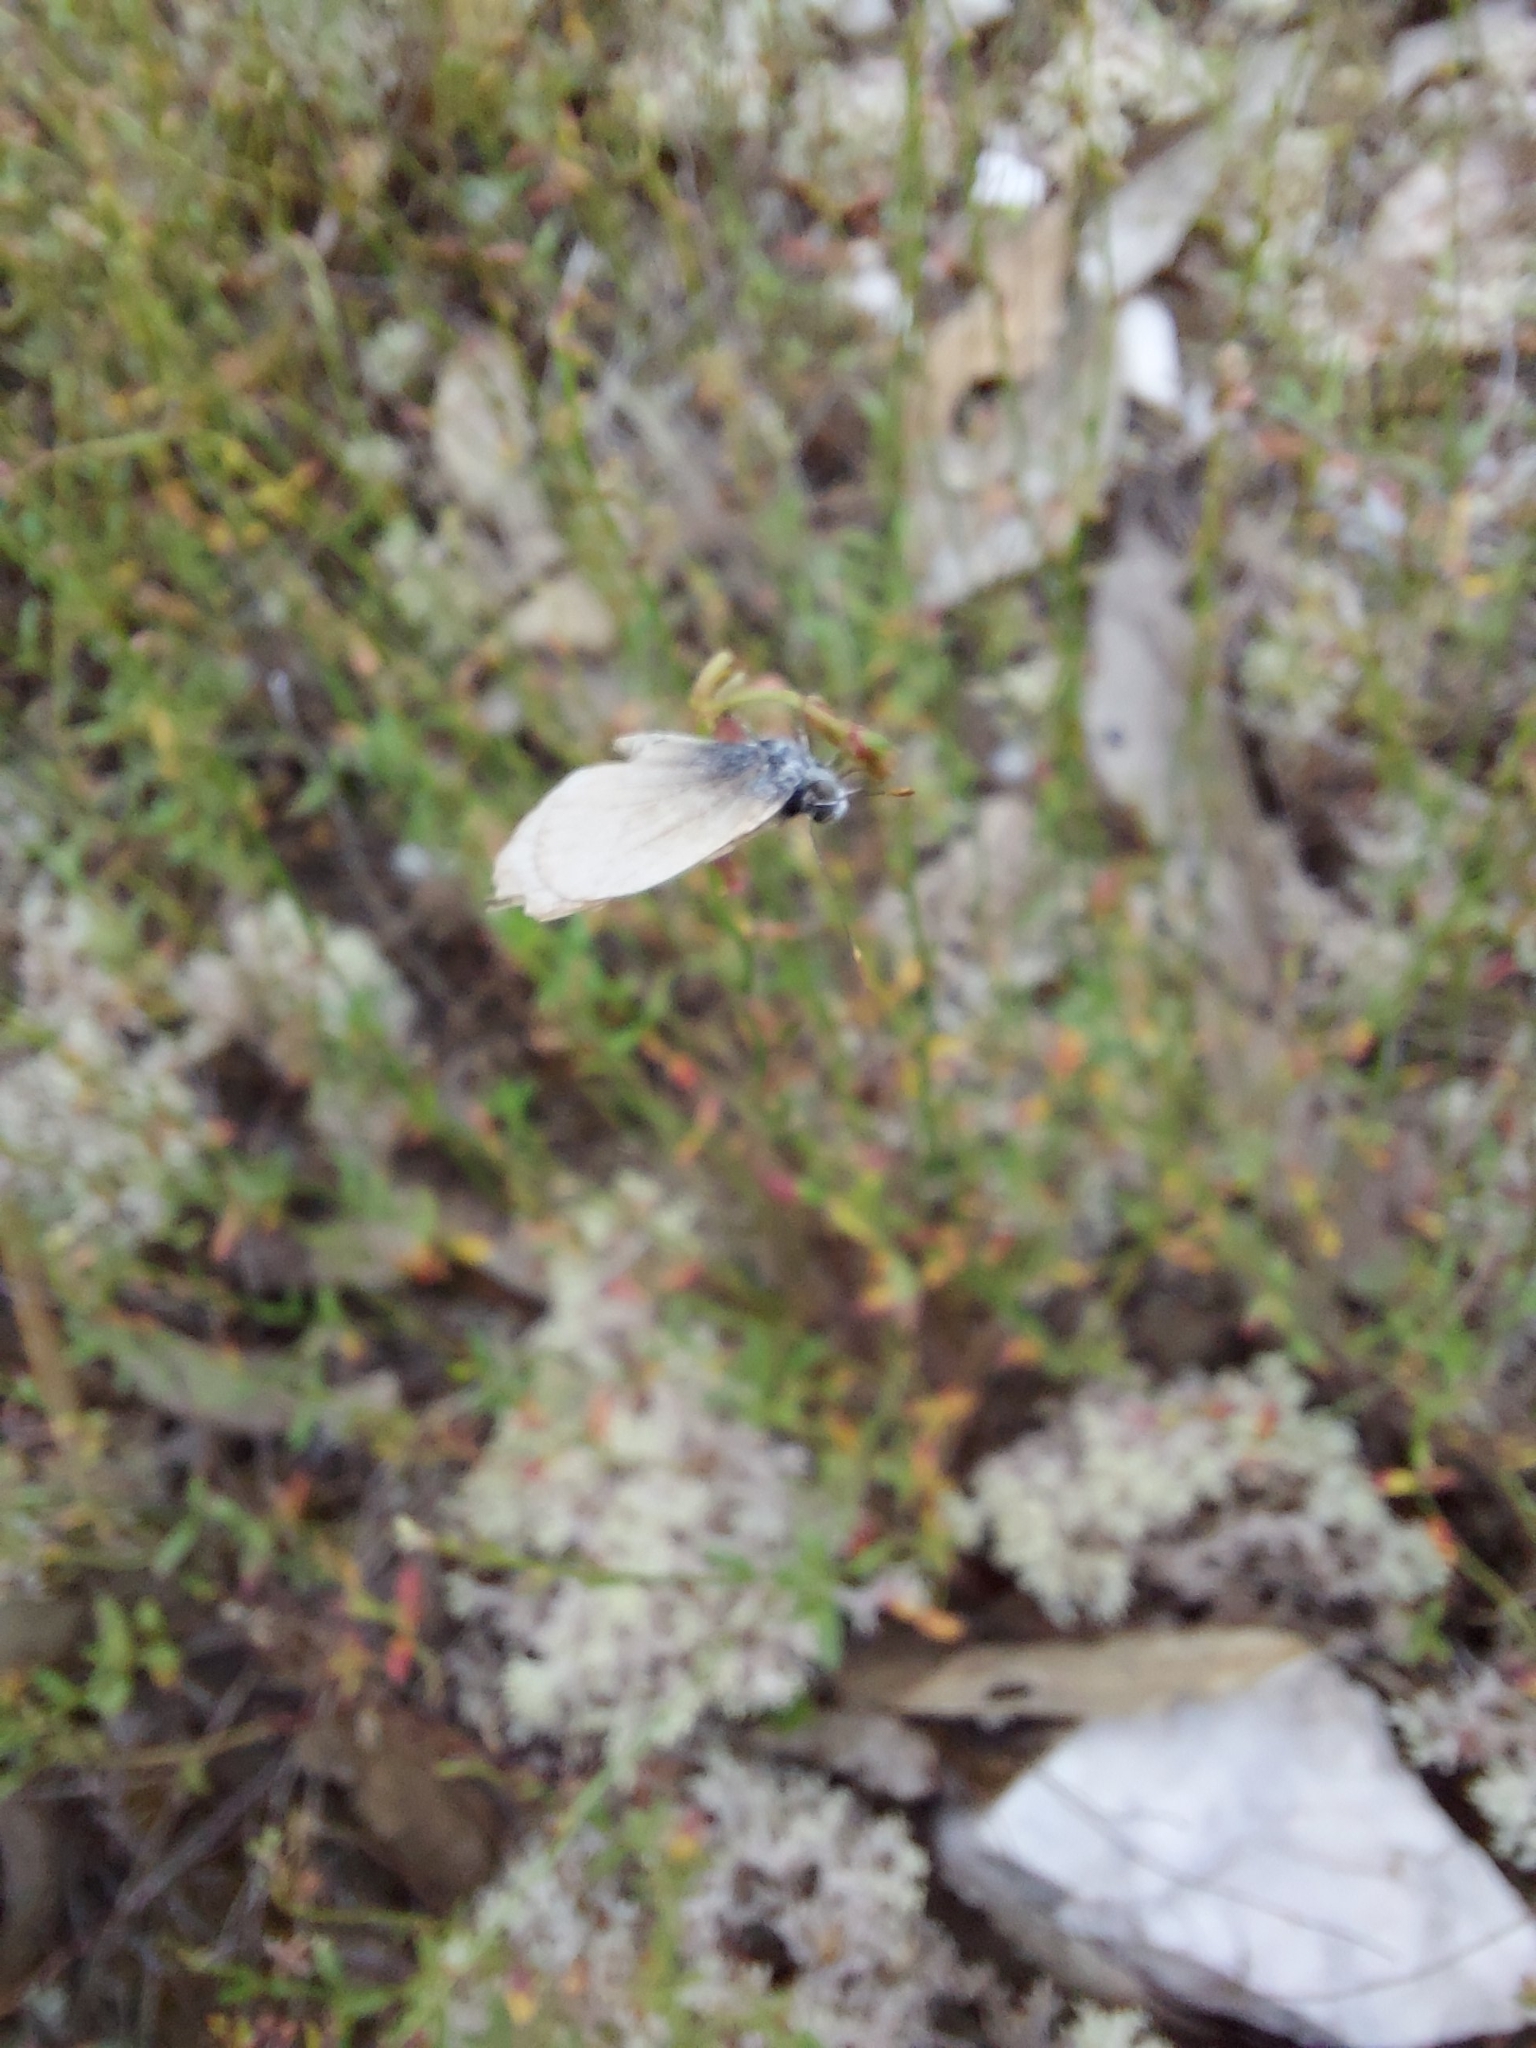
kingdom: Animalia
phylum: Arthropoda
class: Insecta
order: Lepidoptera
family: Lycaenidae
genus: Zizina
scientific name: Zizina labradus
